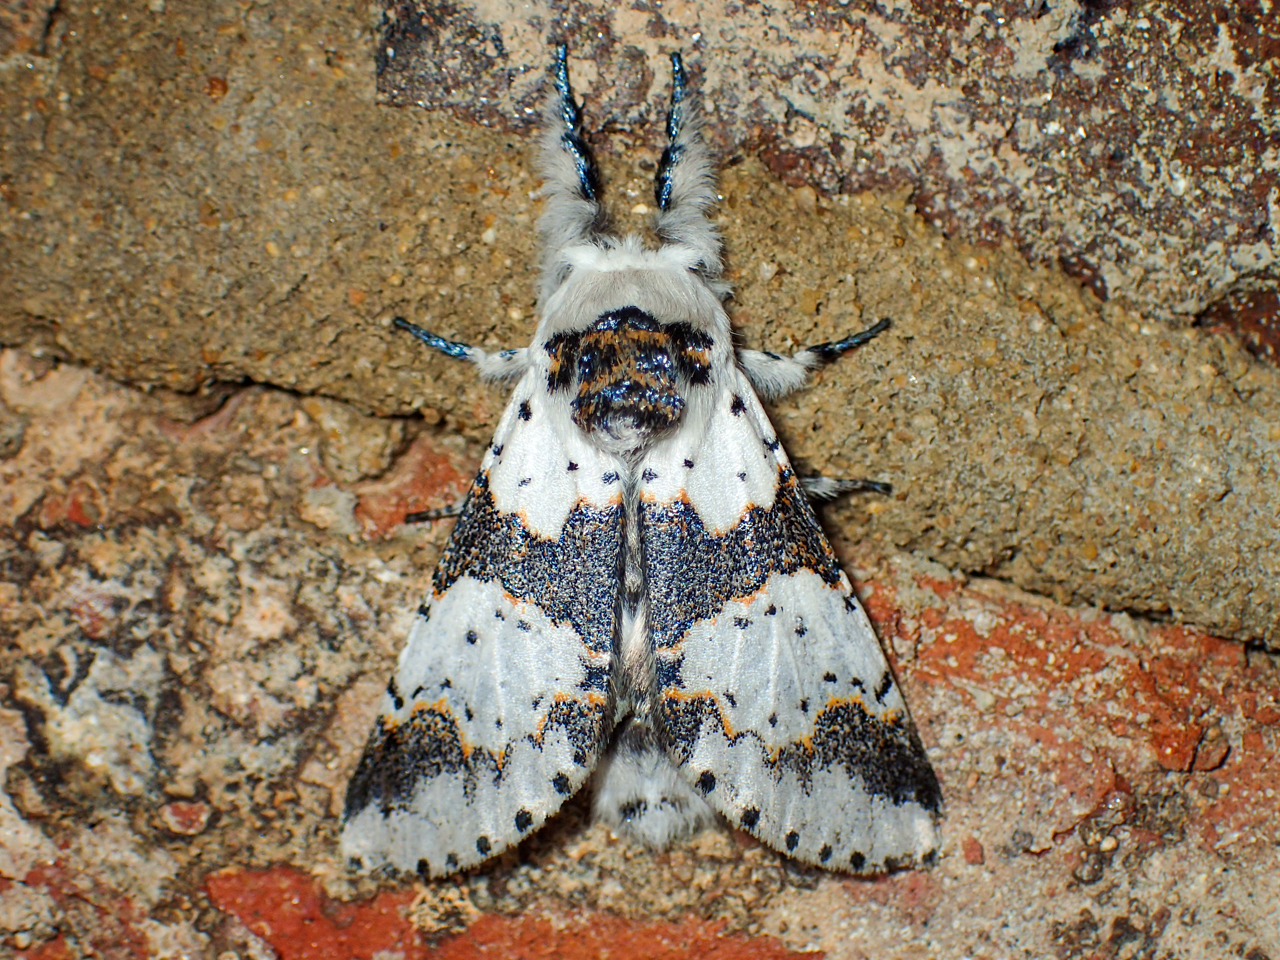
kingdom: Animalia
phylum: Arthropoda
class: Insecta
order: Lepidoptera
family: Notodontidae
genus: Furcula
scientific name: Furcula borealis
